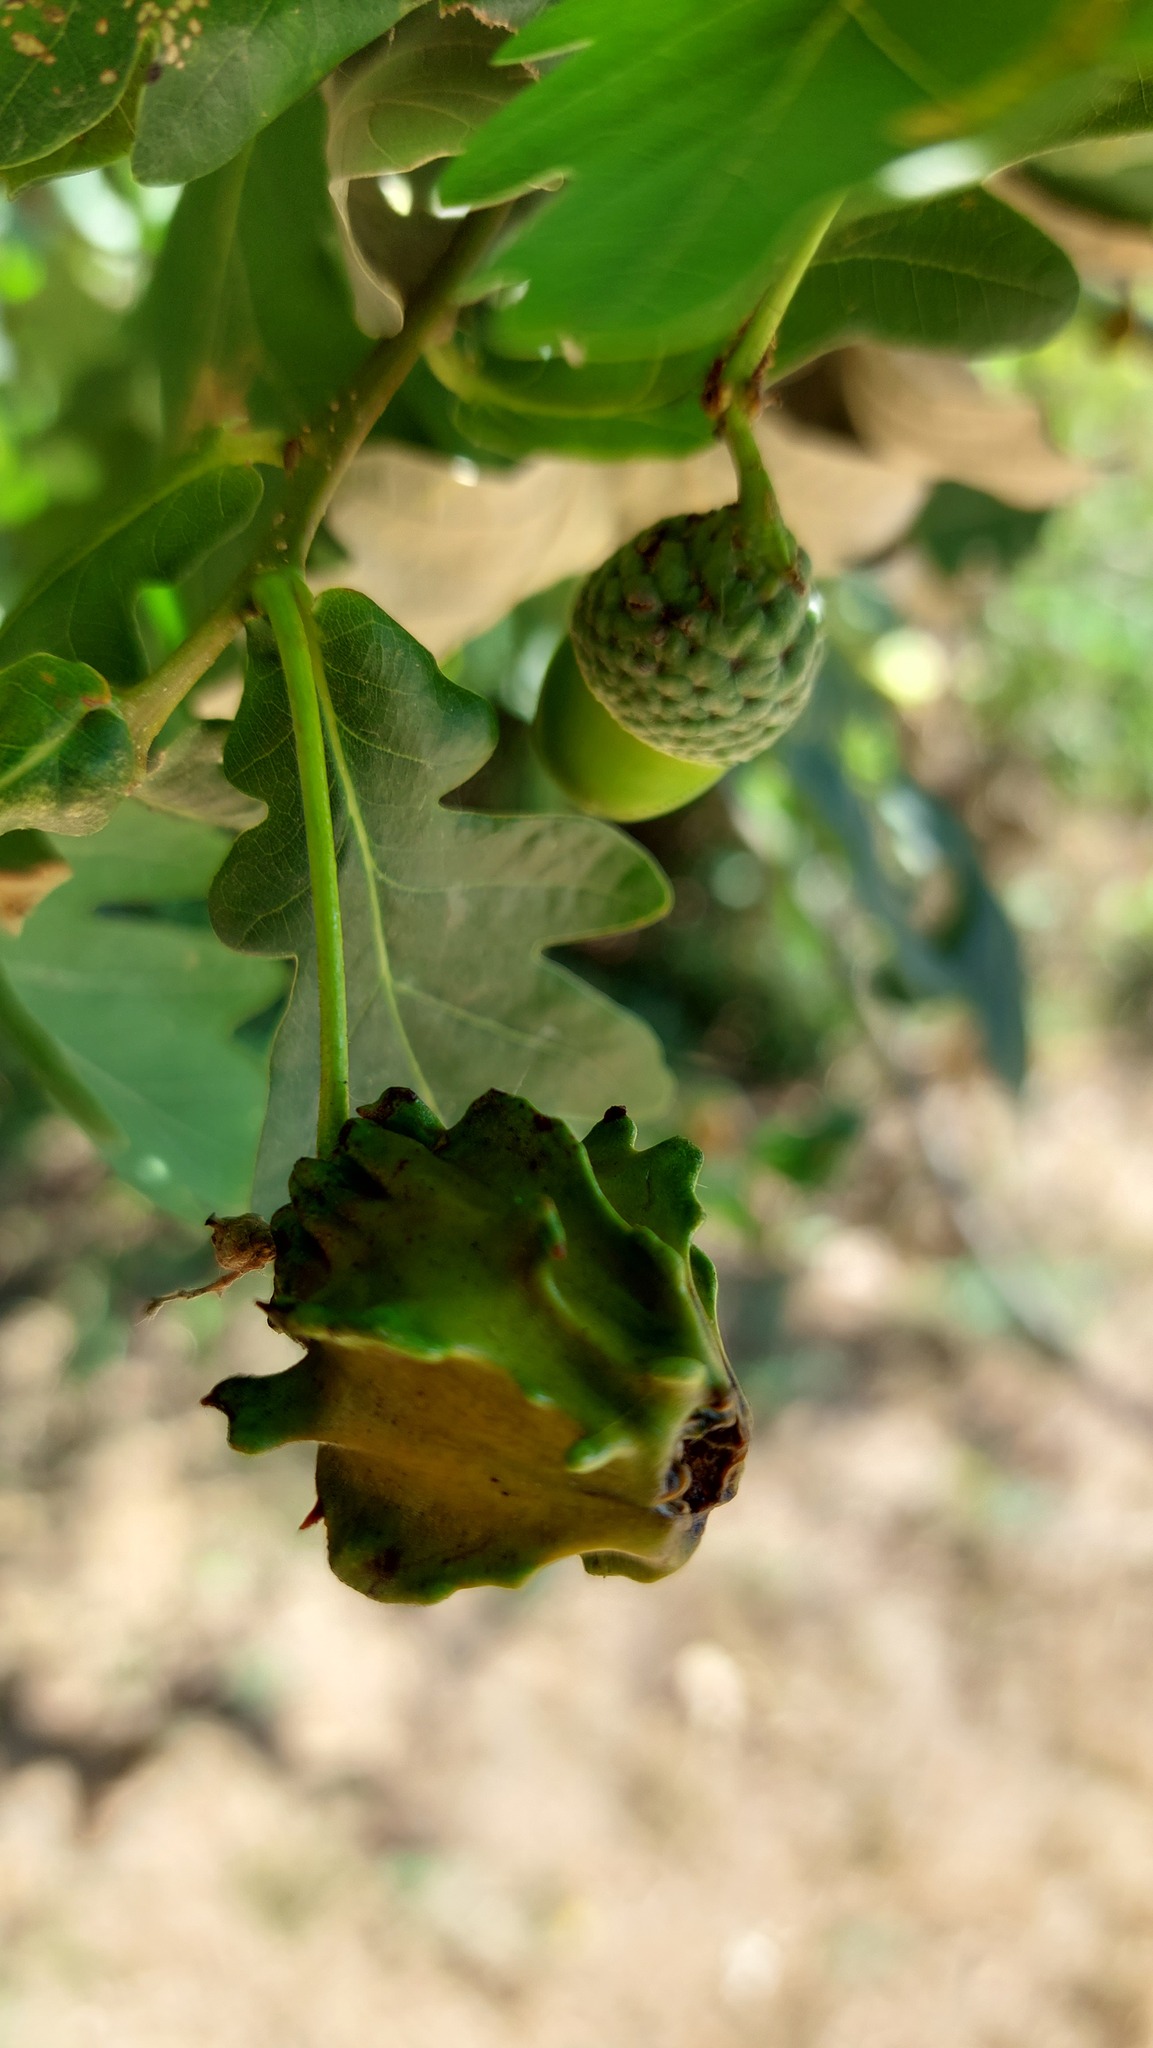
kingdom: Animalia
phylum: Arthropoda
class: Insecta
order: Hymenoptera
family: Cynipidae
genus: Andricus
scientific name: Andricus quercuscalicis
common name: Knopper gall
